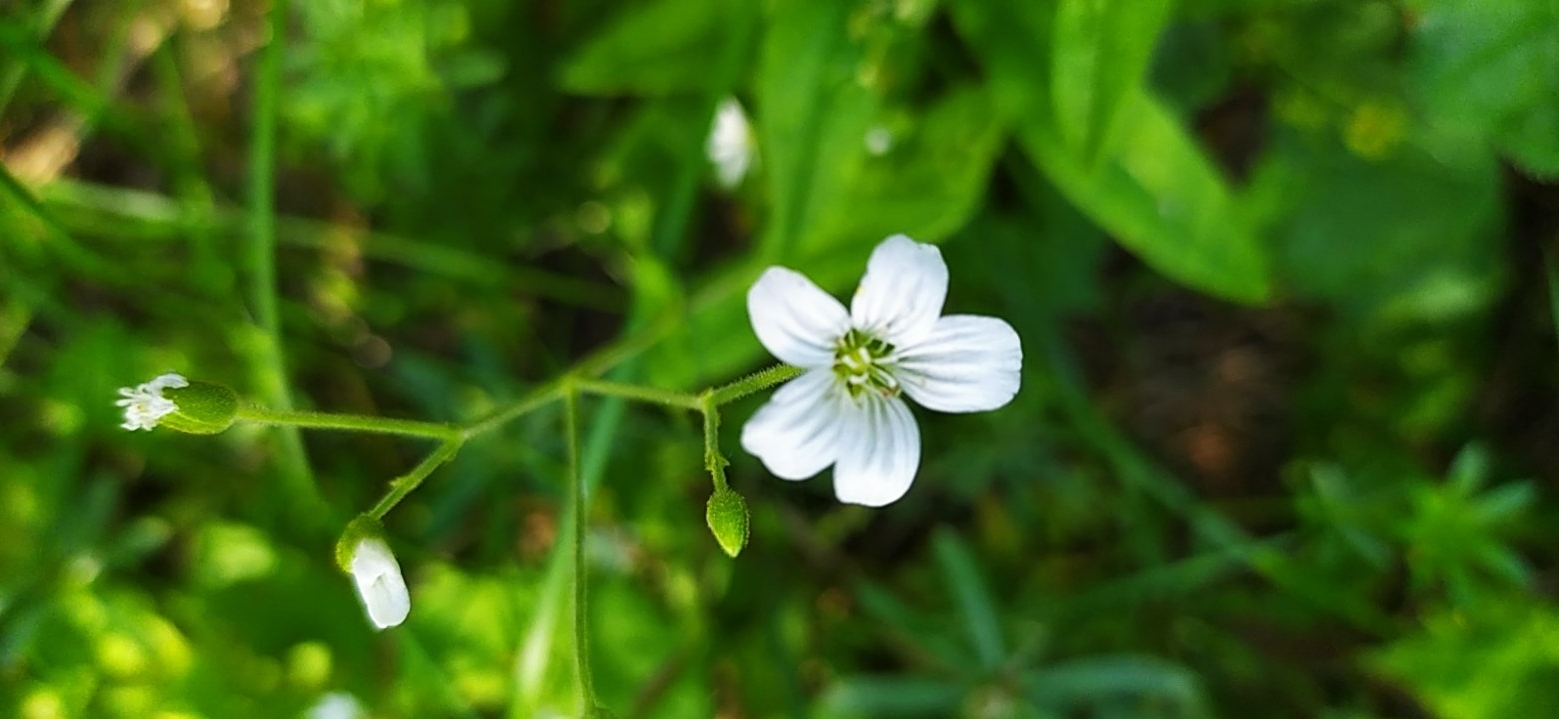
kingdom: Plantae
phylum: Tracheophyta
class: Magnoliopsida
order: Caryophyllales
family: Caryophyllaceae
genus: Cerastium
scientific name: Cerastium pauciflorum
